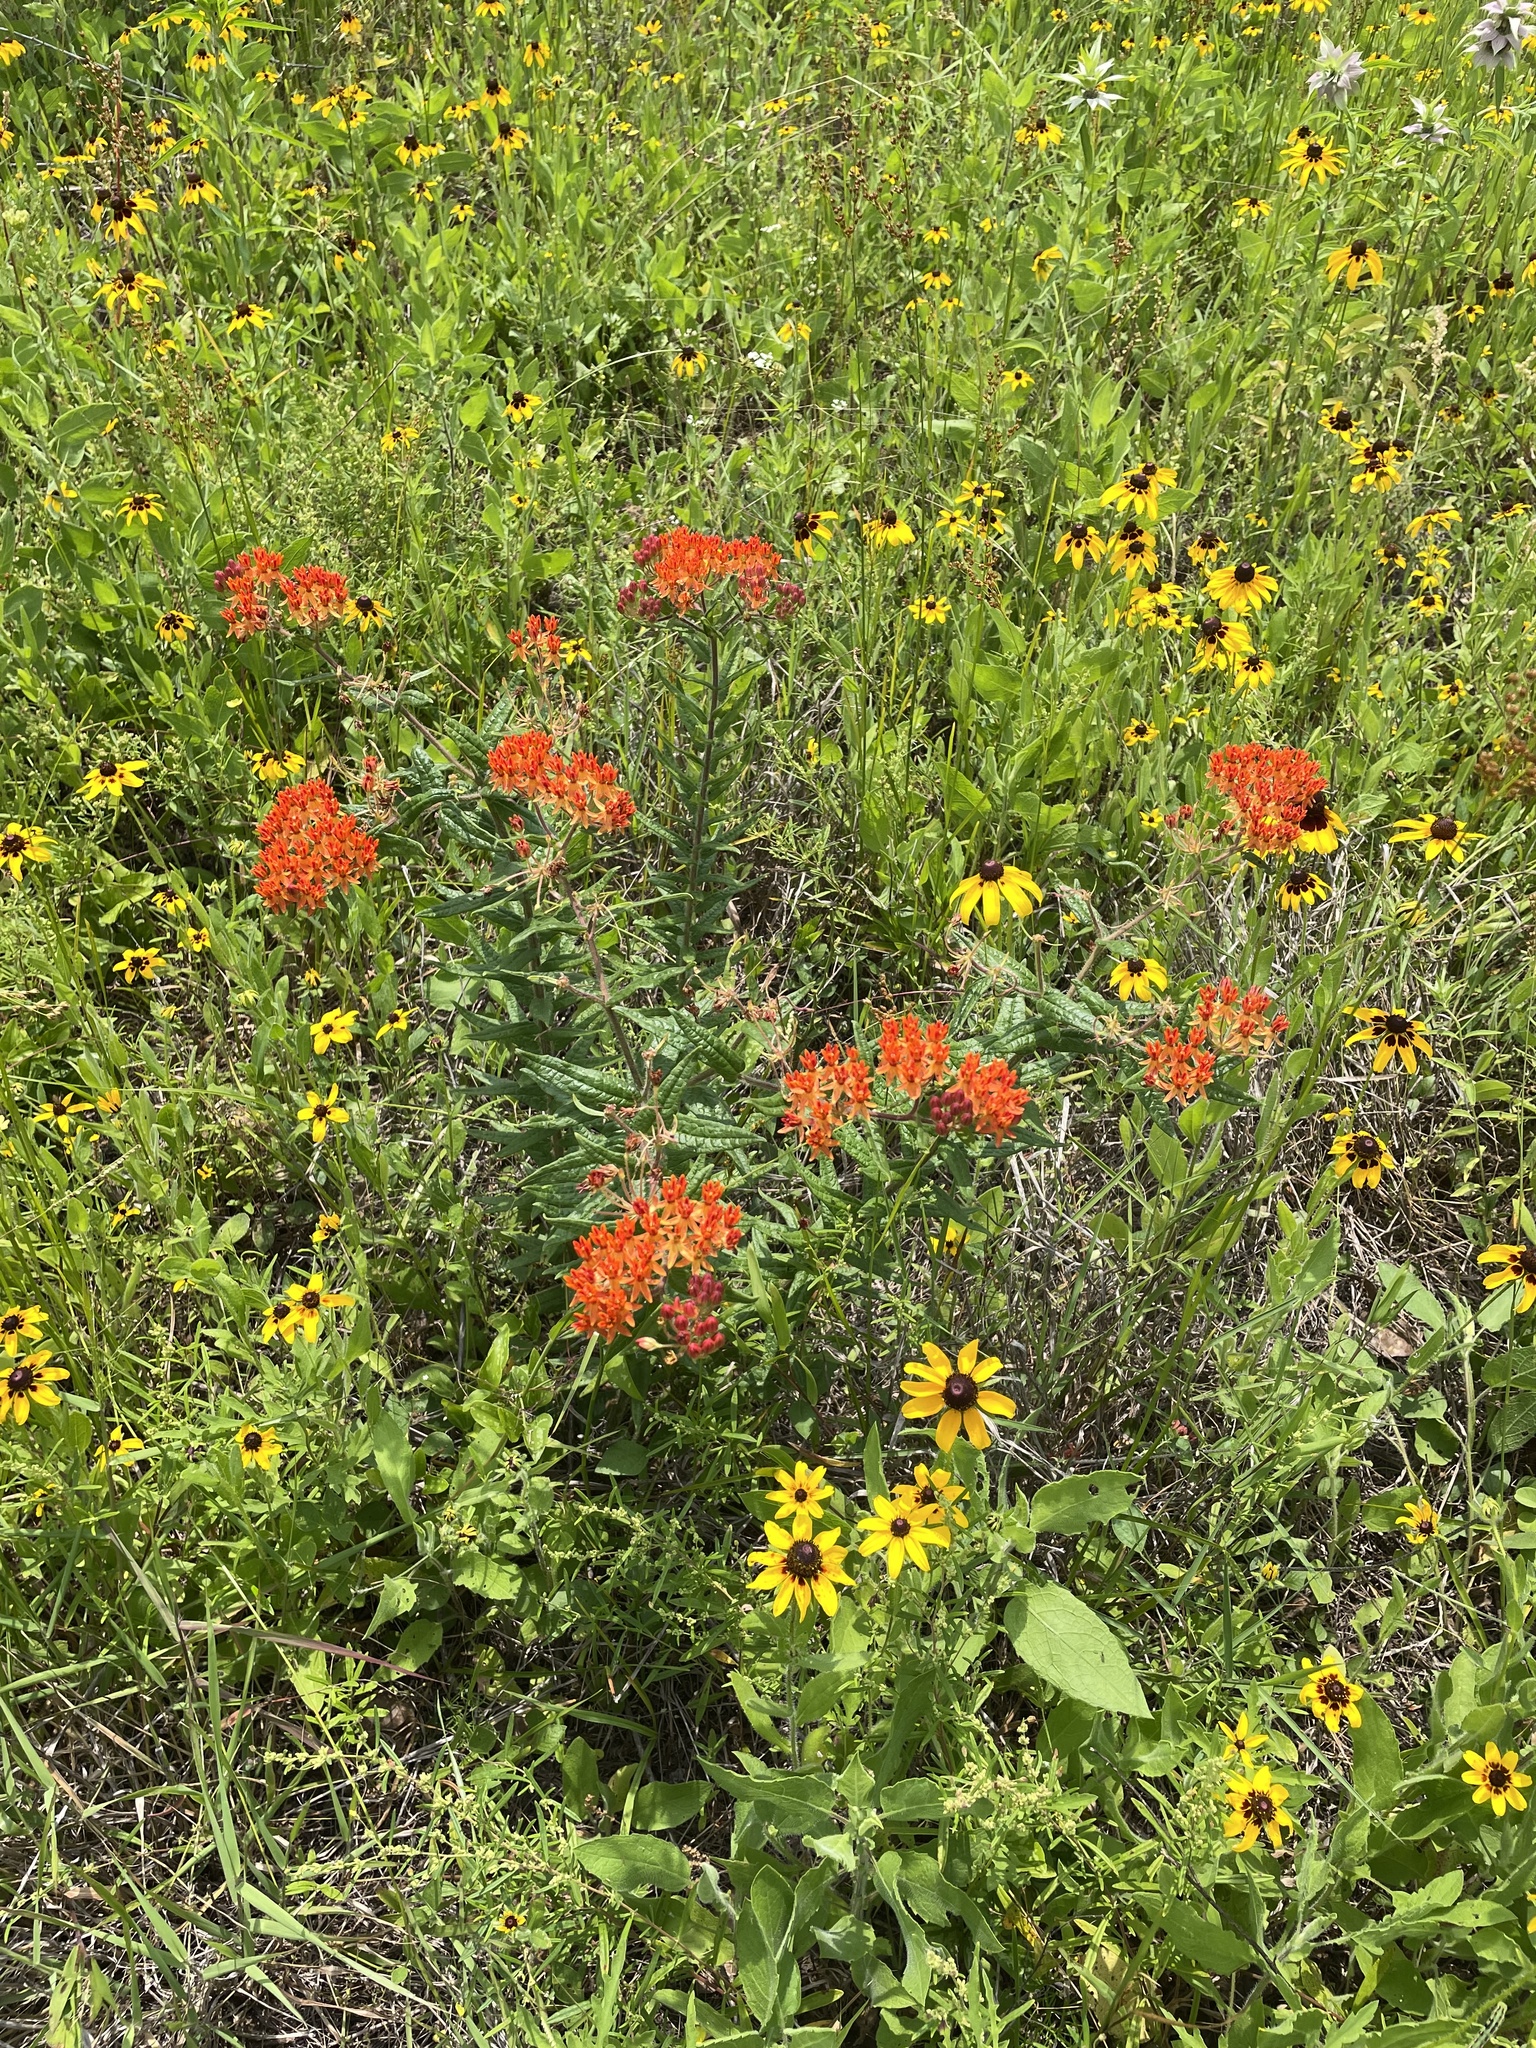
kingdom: Plantae
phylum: Tracheophyta
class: Magnoliopsida
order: Gentianales
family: Apocynaceae
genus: Asclepias
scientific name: Asclepias tuberosa
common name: Butterfly milkweed
